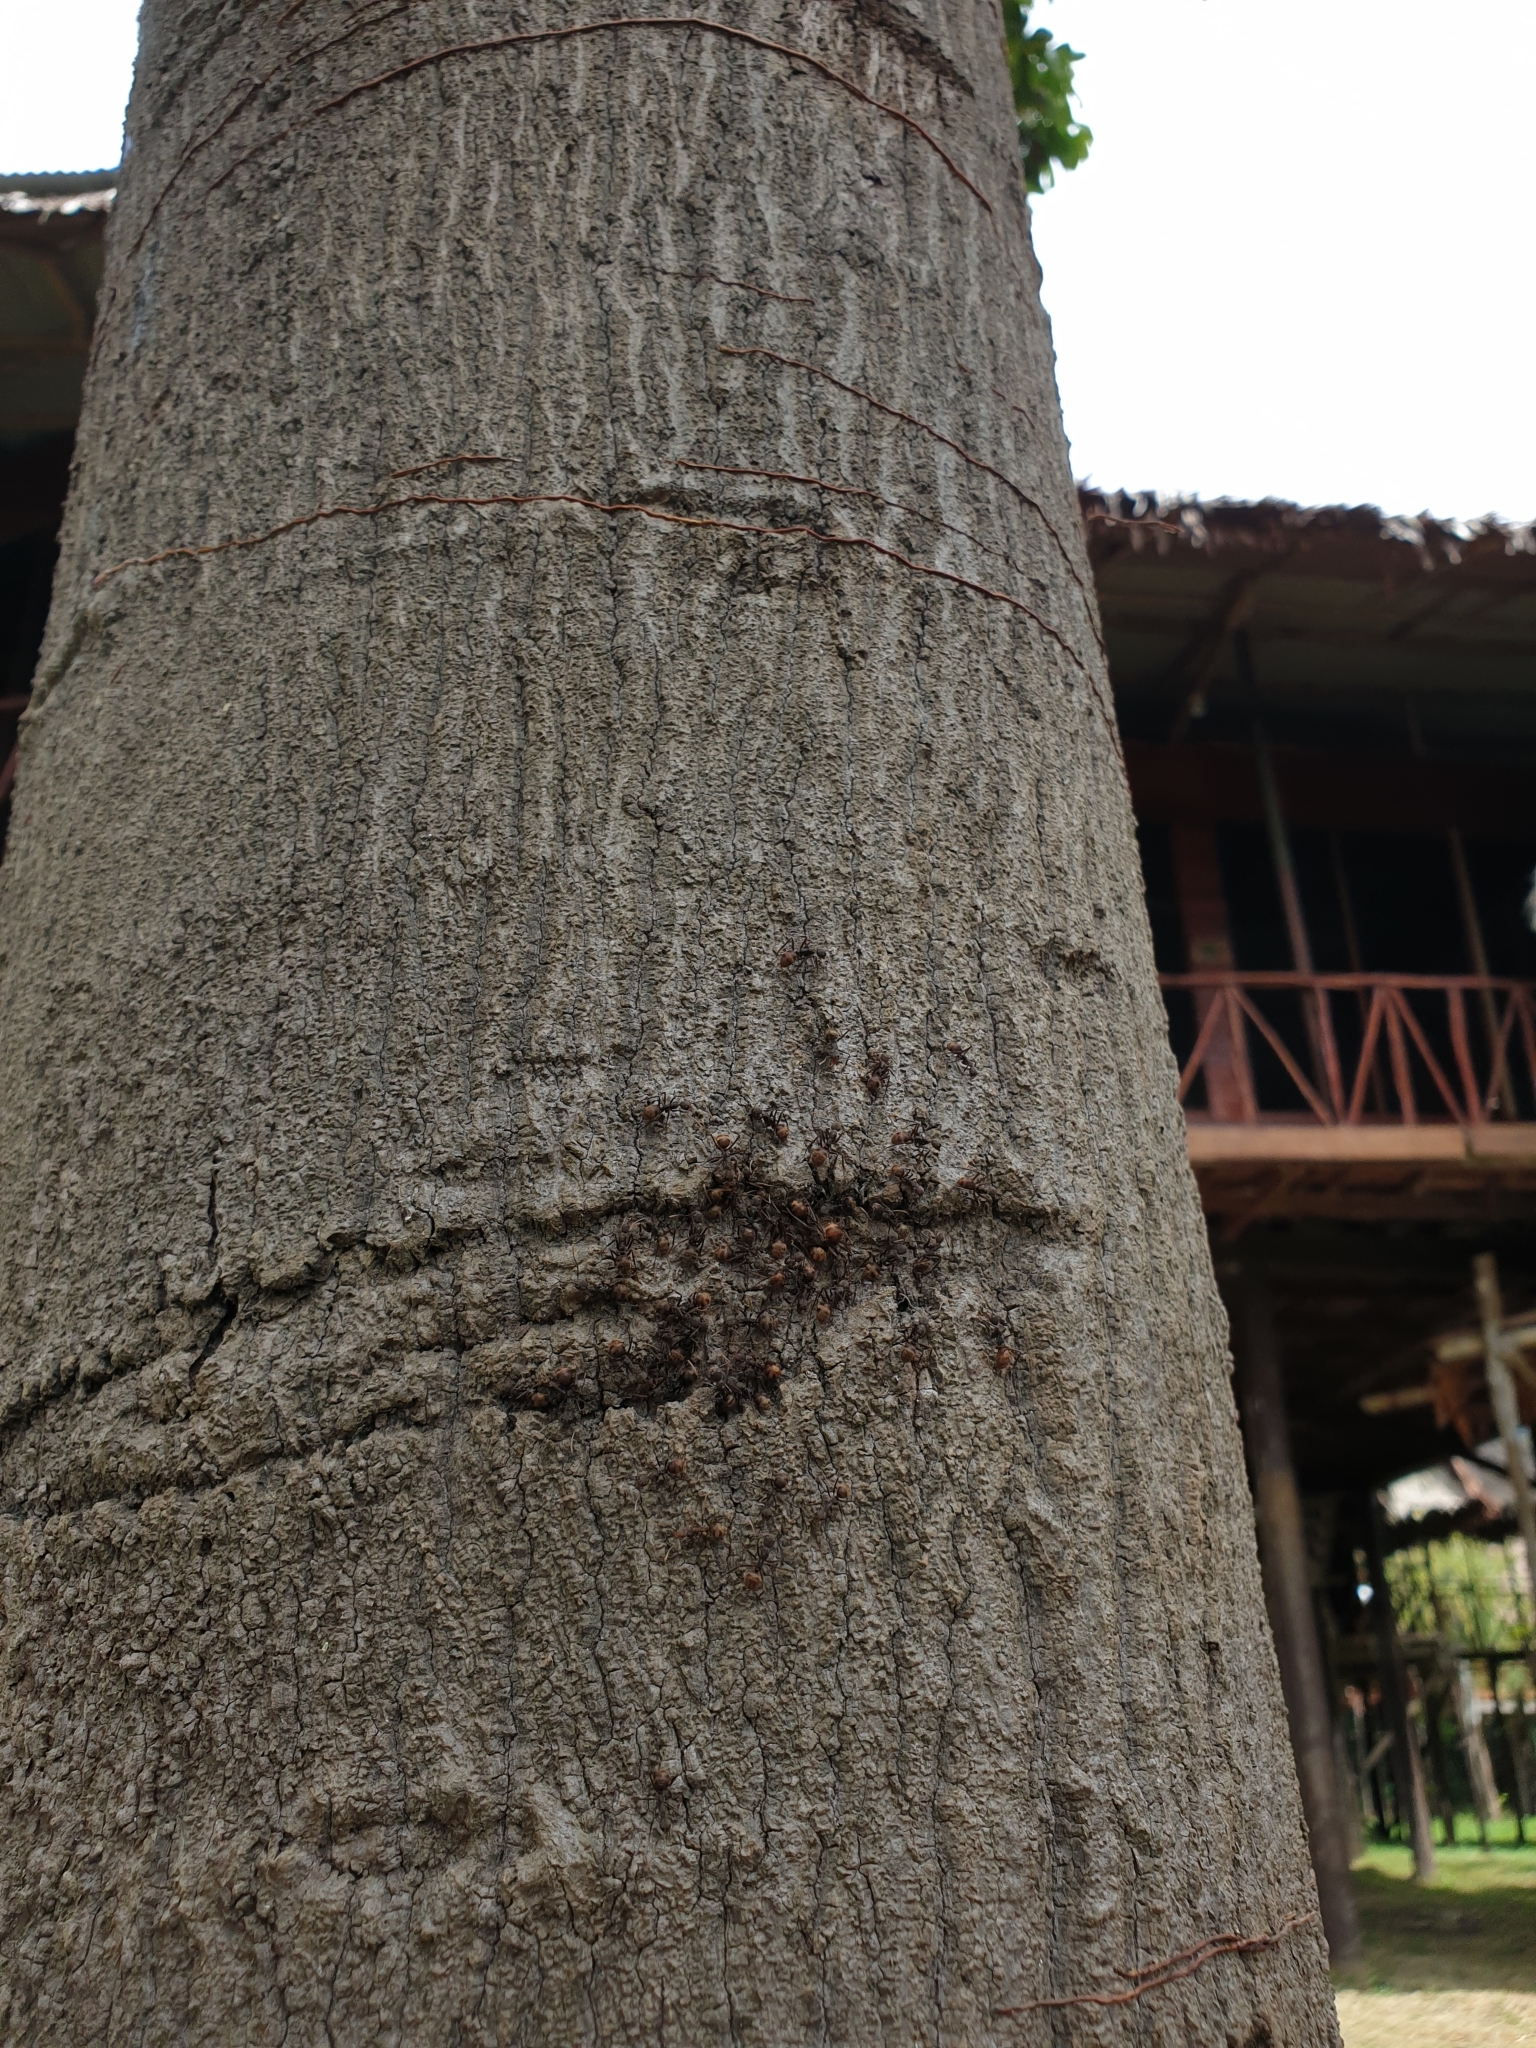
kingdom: Animalia
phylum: Arthropoda
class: Insecta
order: Hymenoptera
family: Formicidae
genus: Dolichoderus
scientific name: Dolichoderus spurius
